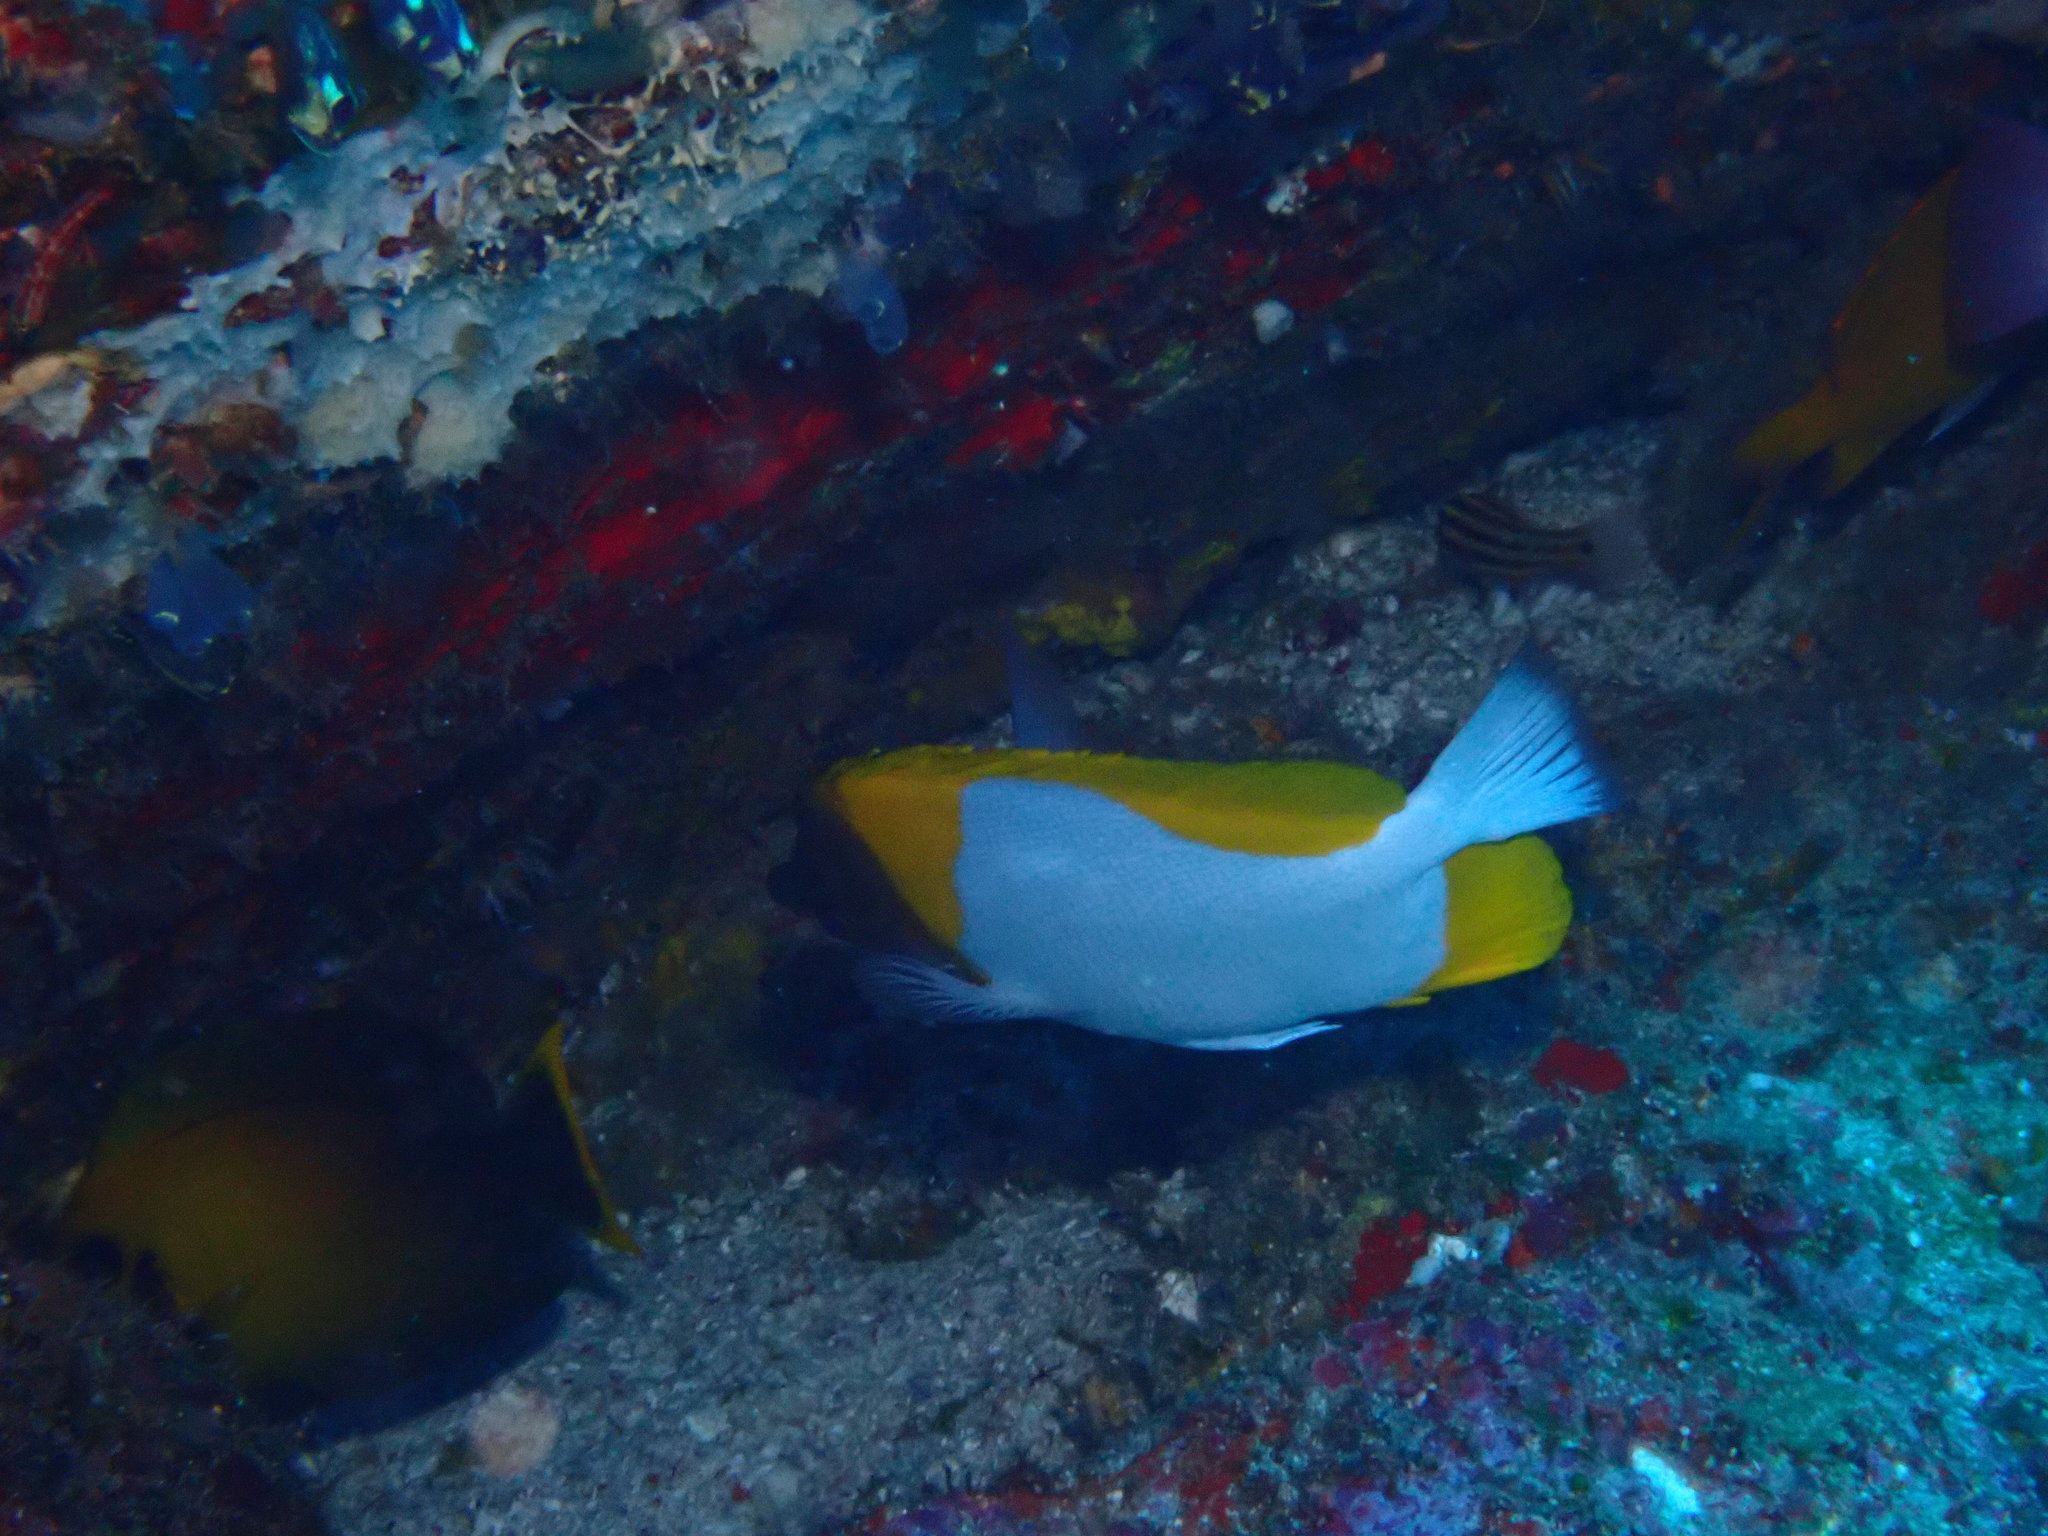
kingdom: Animalia
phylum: Chordata
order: Perciformes
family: Chaetodontidae
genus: Hemitaurichthys
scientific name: Hemitaurichthys polylepis
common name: Brushytoothed butterflyfish
